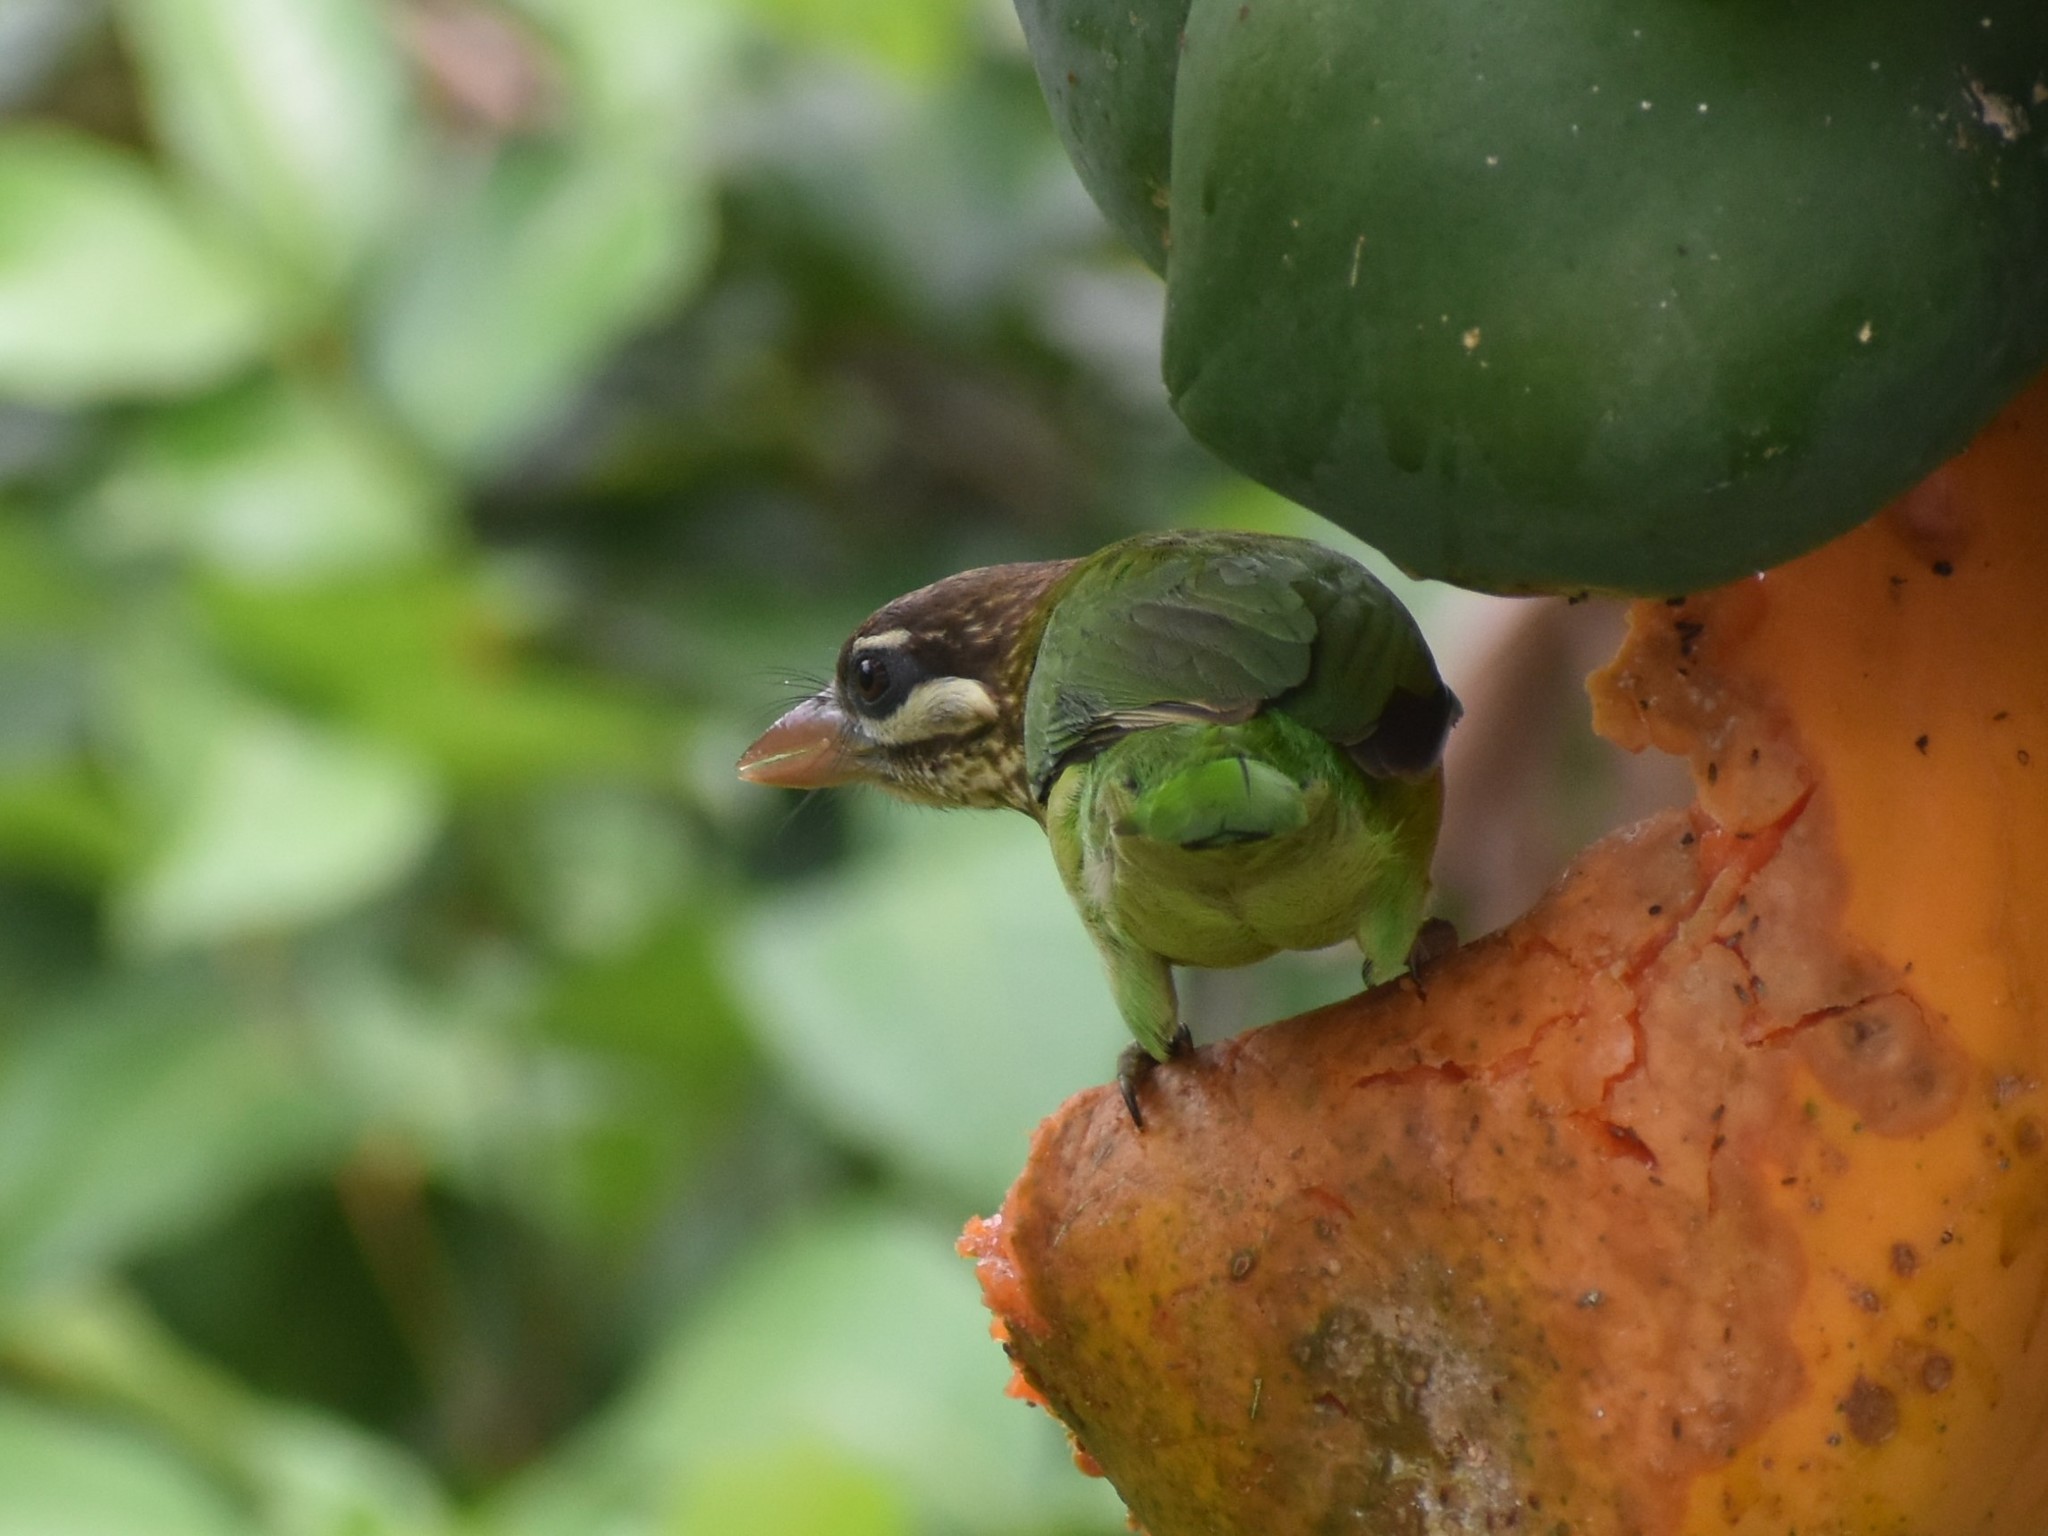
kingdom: Animalia
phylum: Chordata
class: Aves
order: Piciformes
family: Megalaimidae
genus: Psilopogon
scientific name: Psilopogon viridis
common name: White-cheeked barbet
